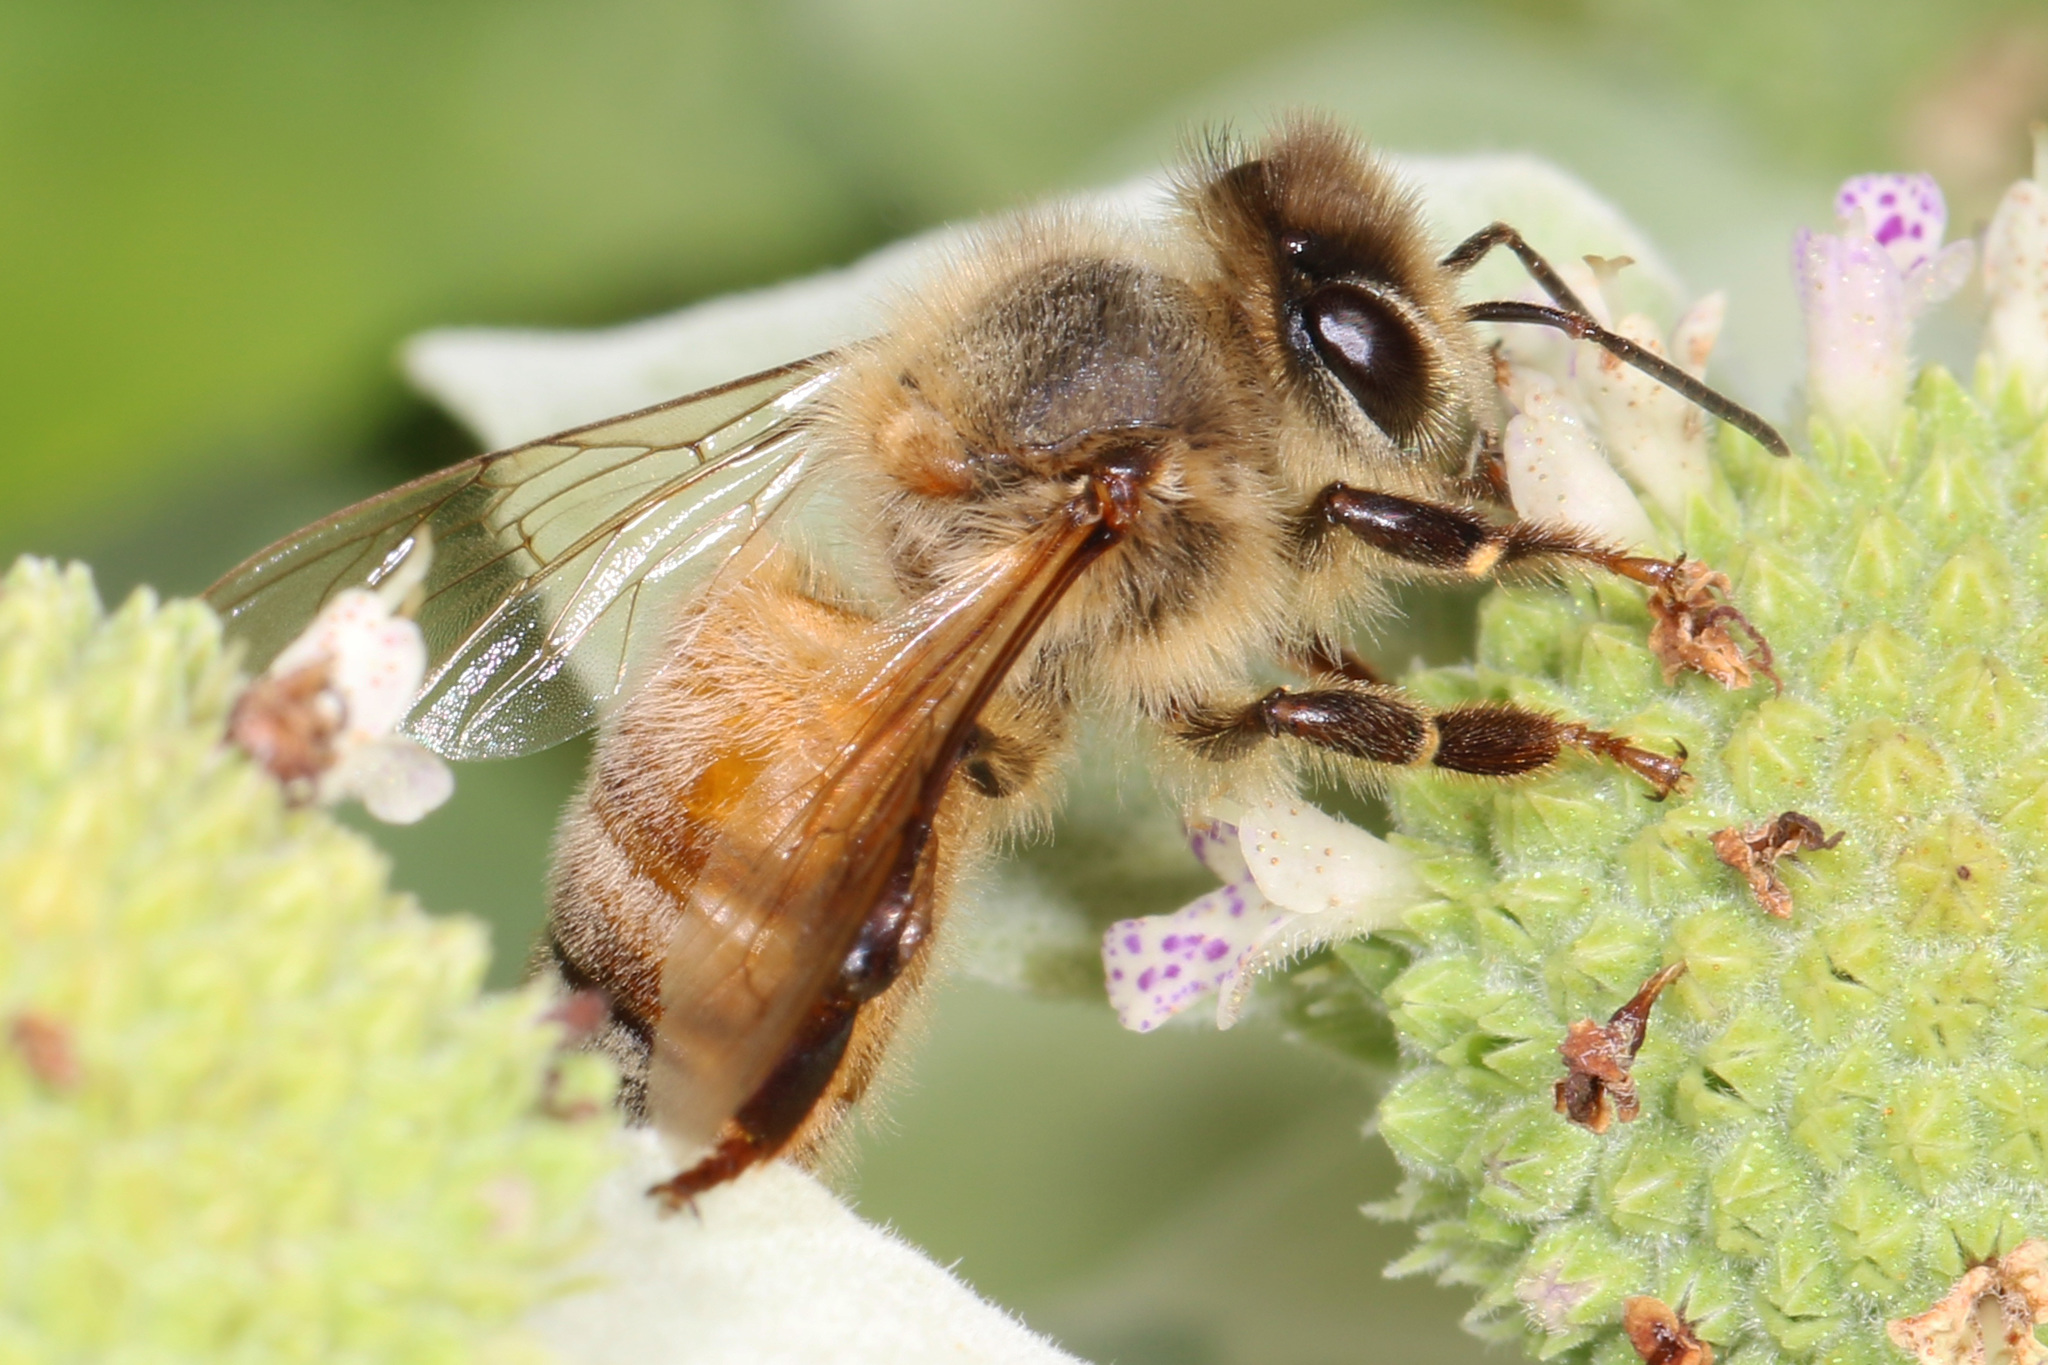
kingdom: Animalia
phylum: Arthropoda
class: Insecta
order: Hymenoptera
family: Apidae
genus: Apis
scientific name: Apis mellifera
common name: Honey bee
